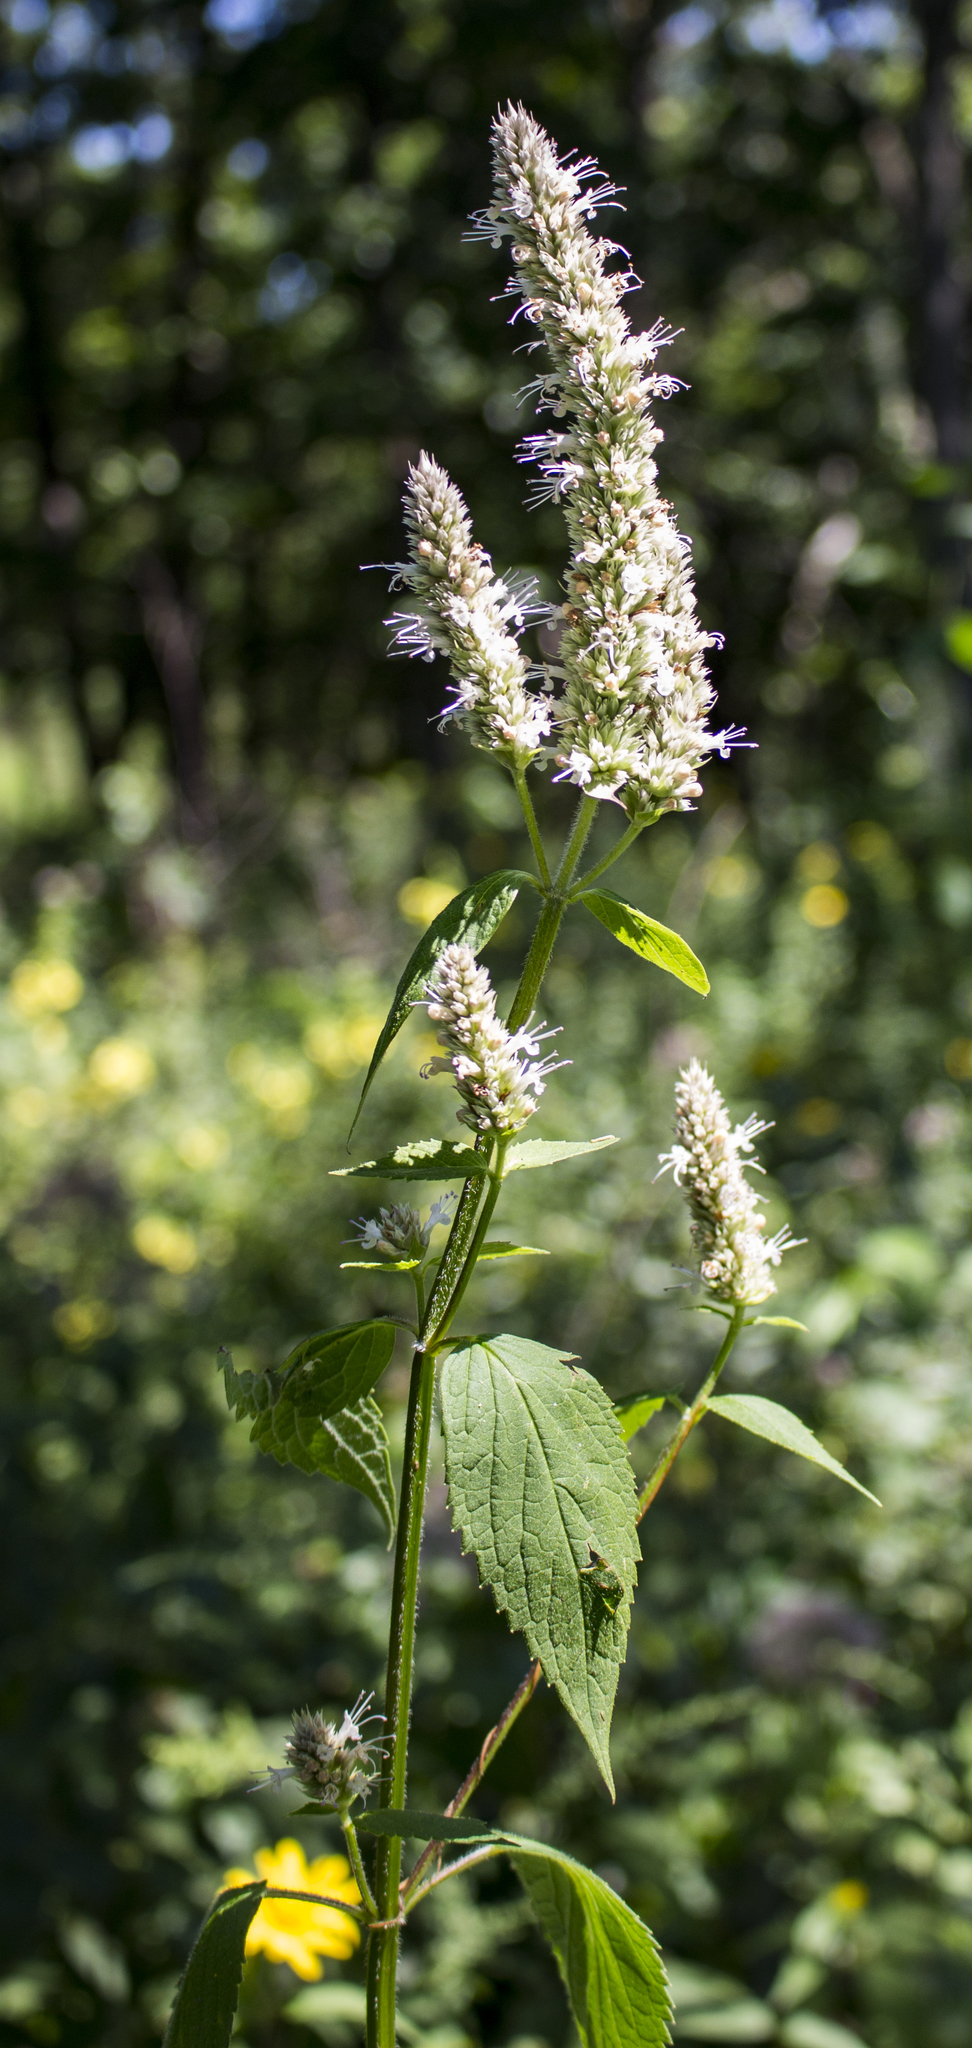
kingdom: Plantae
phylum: Tracheophyta
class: Magnoliopsida
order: Lamiales
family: Lamiaceae
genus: Agastache
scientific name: Agastache scrophulariifolia
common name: Figwort giant hyssop
